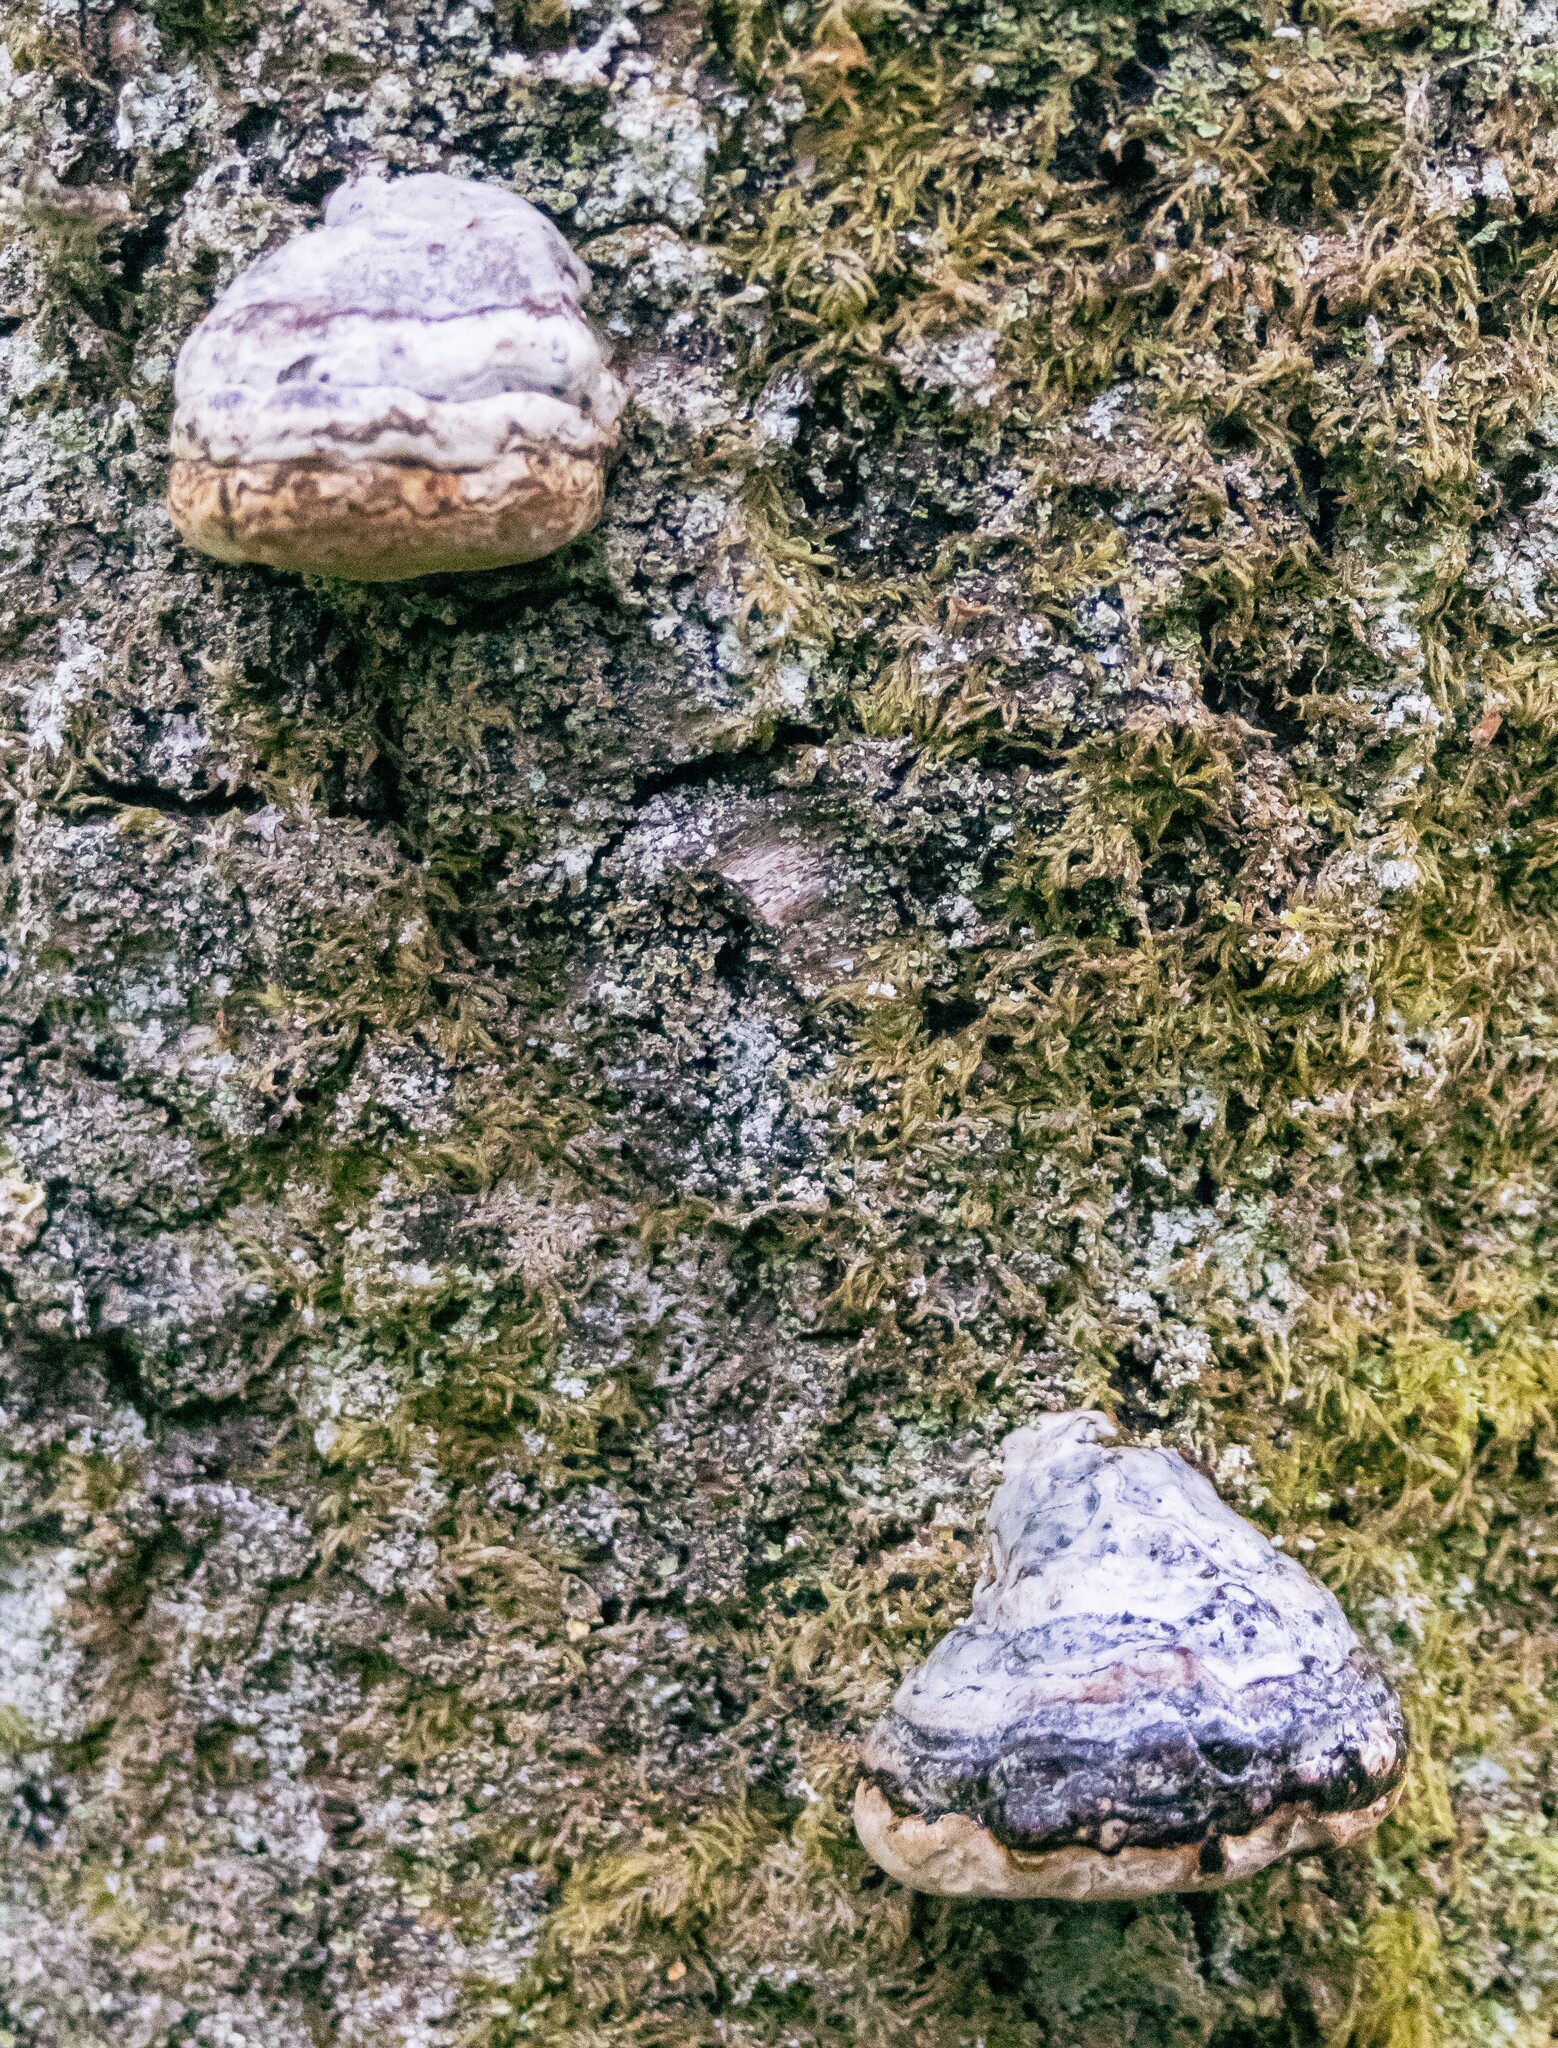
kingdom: Fungi
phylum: Basidiomycota
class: Agaricomycetes
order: Polyporales
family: Polyporaceae
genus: Fomes
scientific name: Fomes fomentarius
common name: Hoof fungus
